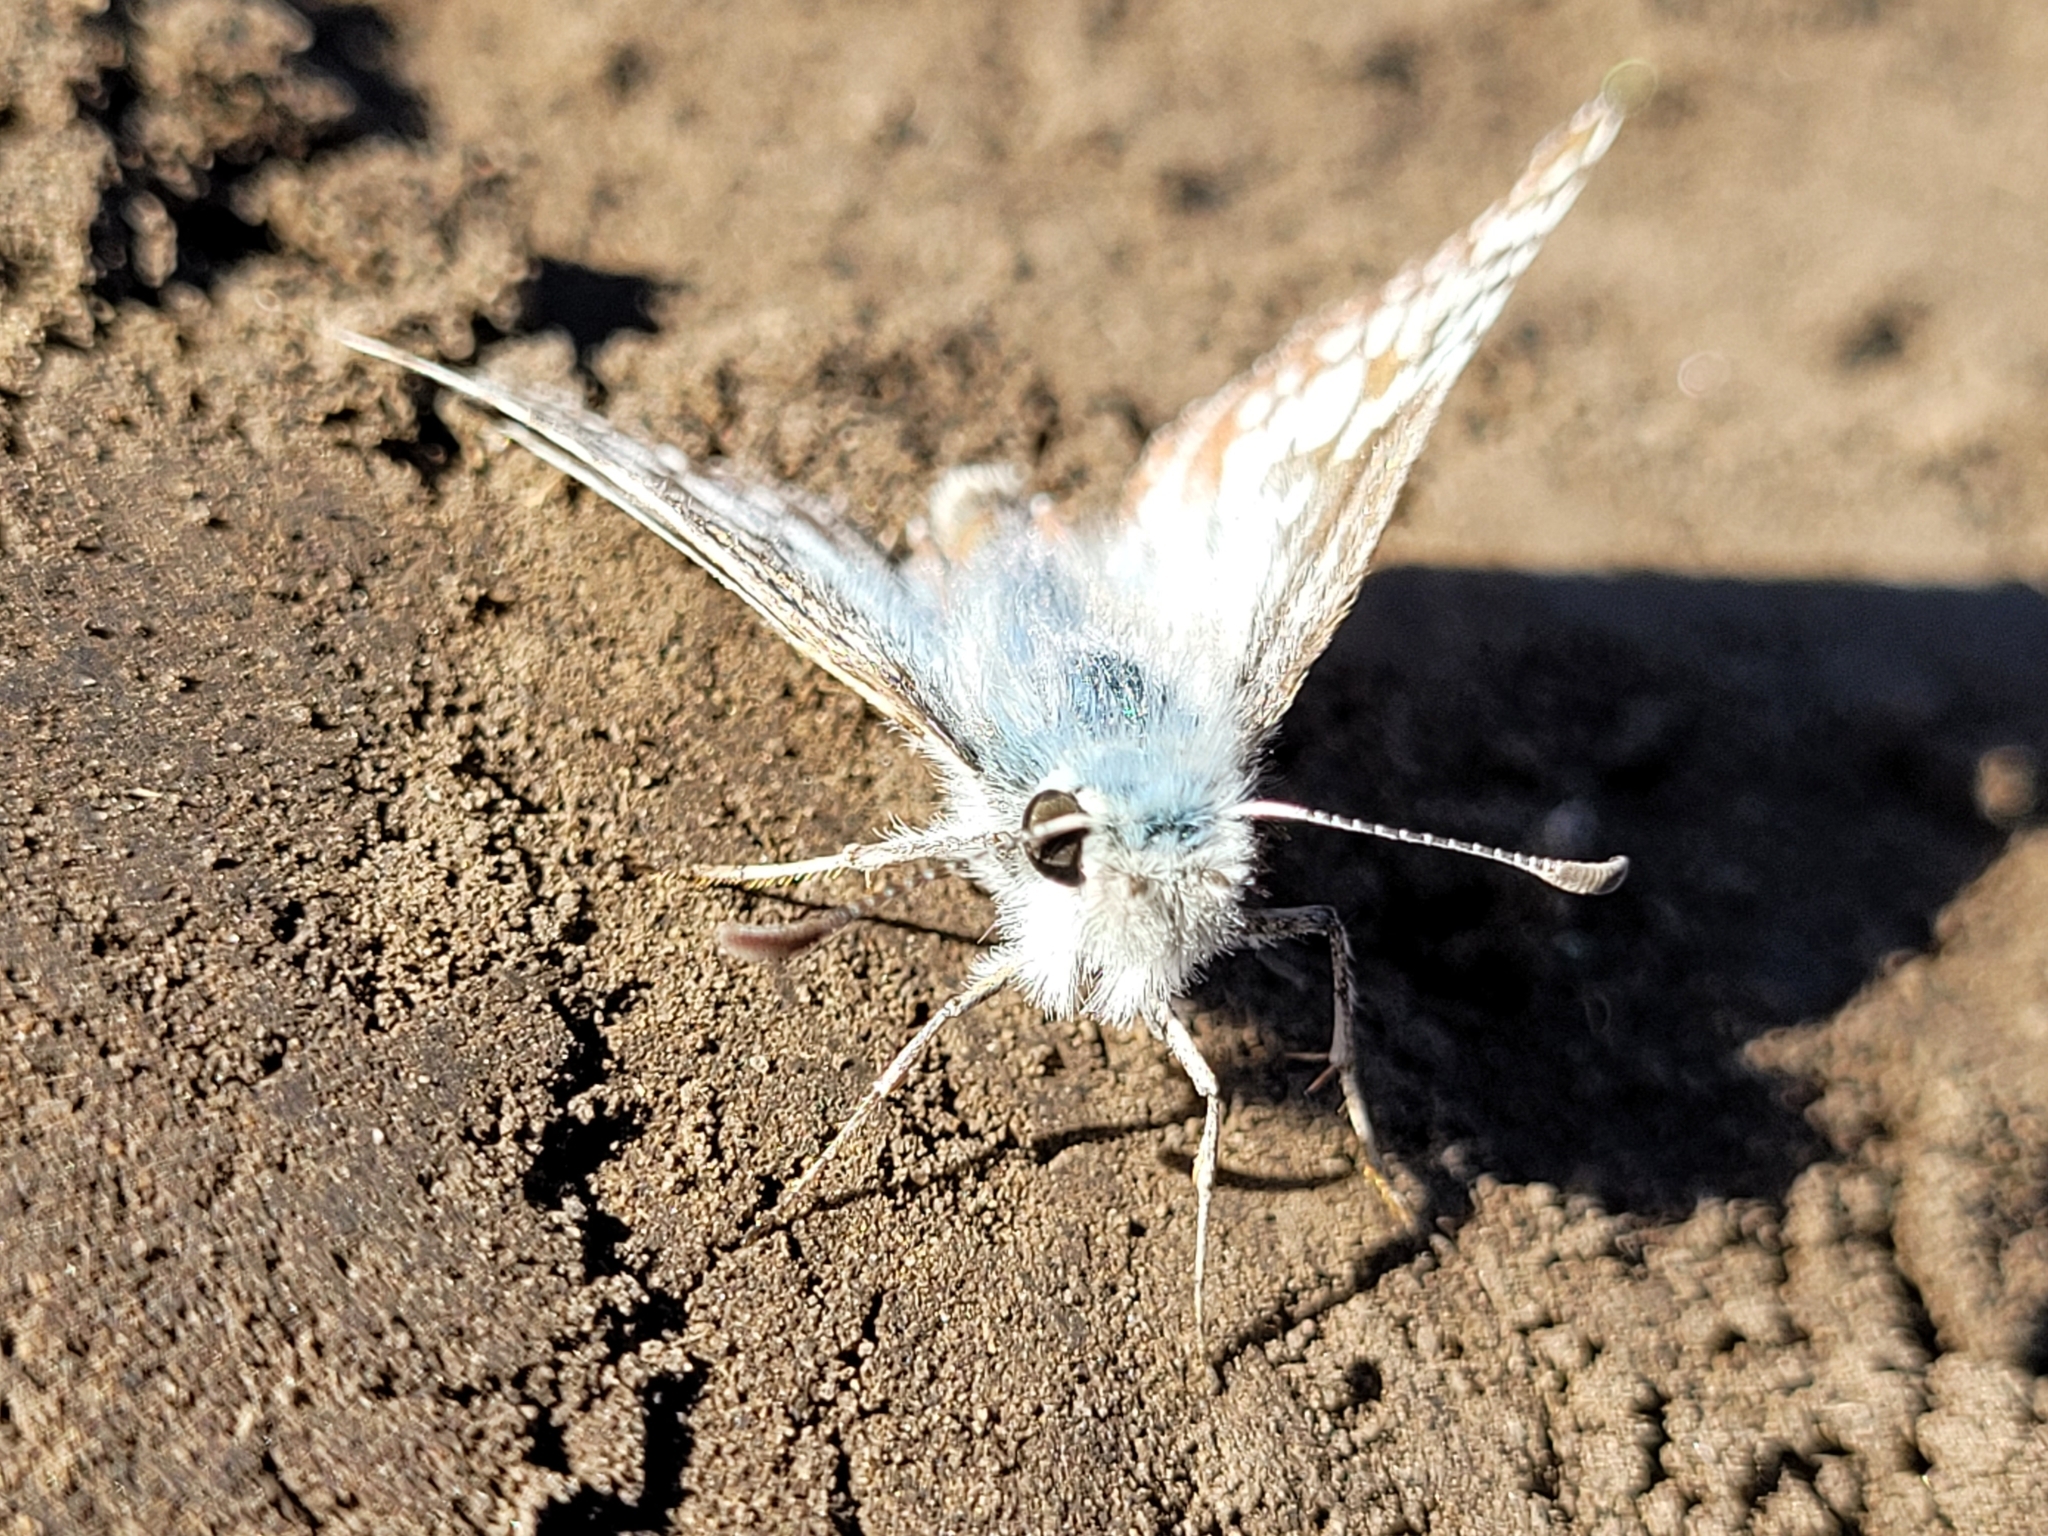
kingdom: Animalia
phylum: Arthropoda
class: Insecta
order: Lepidoptera
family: Hesperiidae
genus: Burnsius
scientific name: Burnsius communis
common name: Common checkered-skipper
